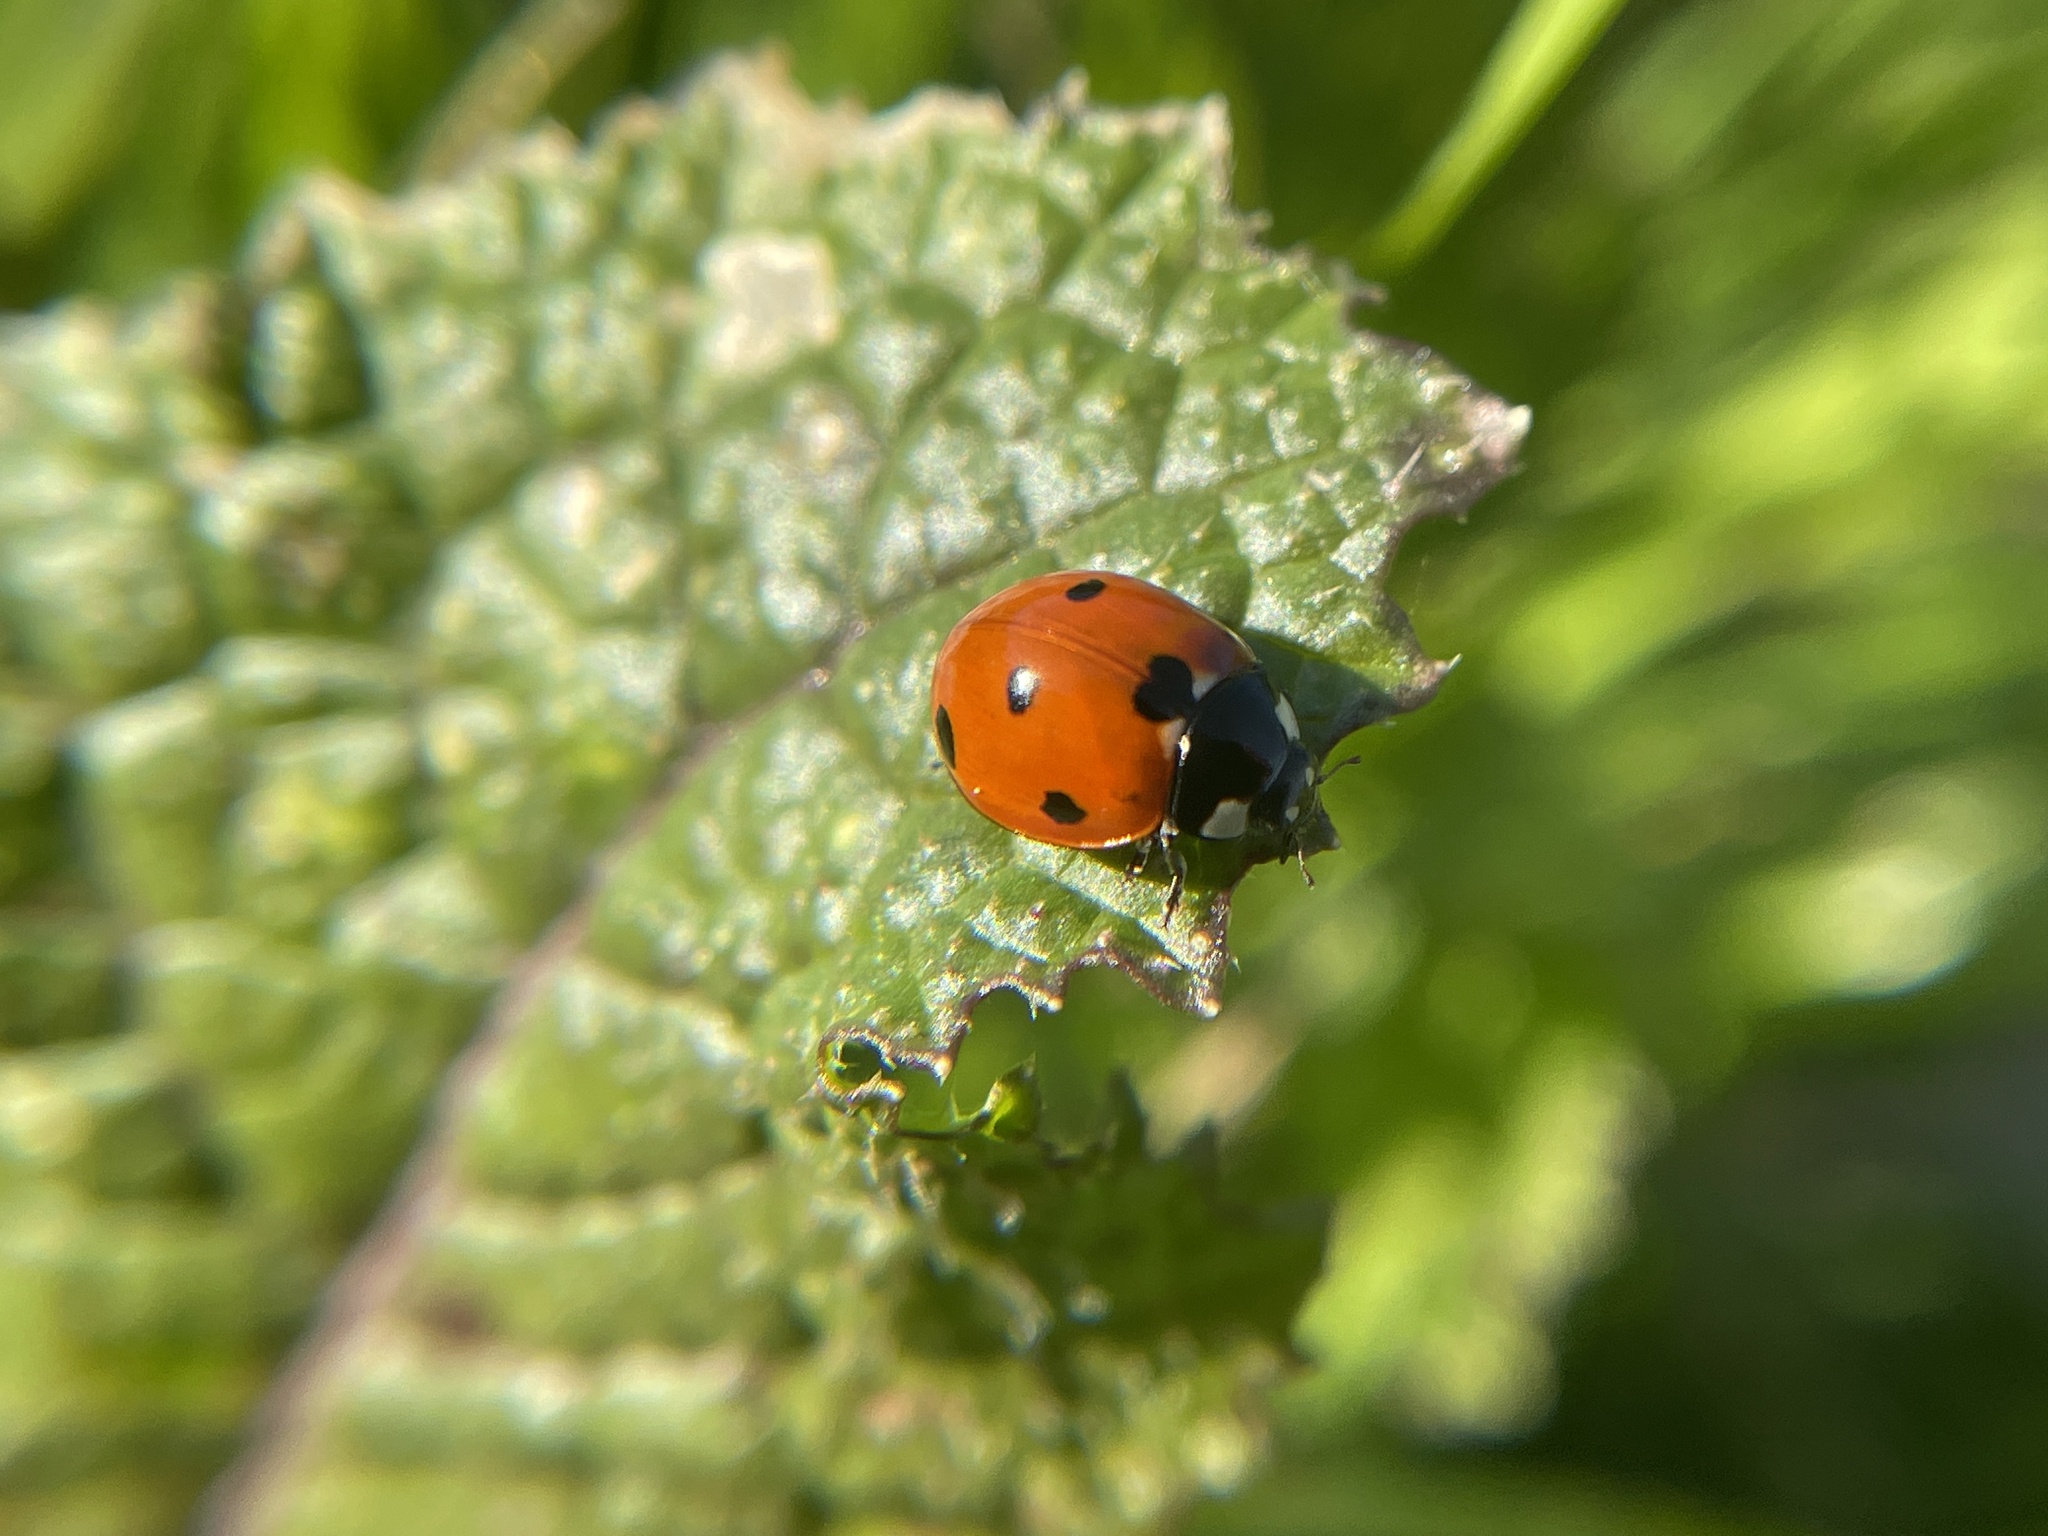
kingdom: Animalia
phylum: Arthropoda
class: Insecta
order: Coleoptera
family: Coccinellidae
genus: Coccinella
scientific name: Coccinella septempunctata
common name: Sevenspotted lady beetle
